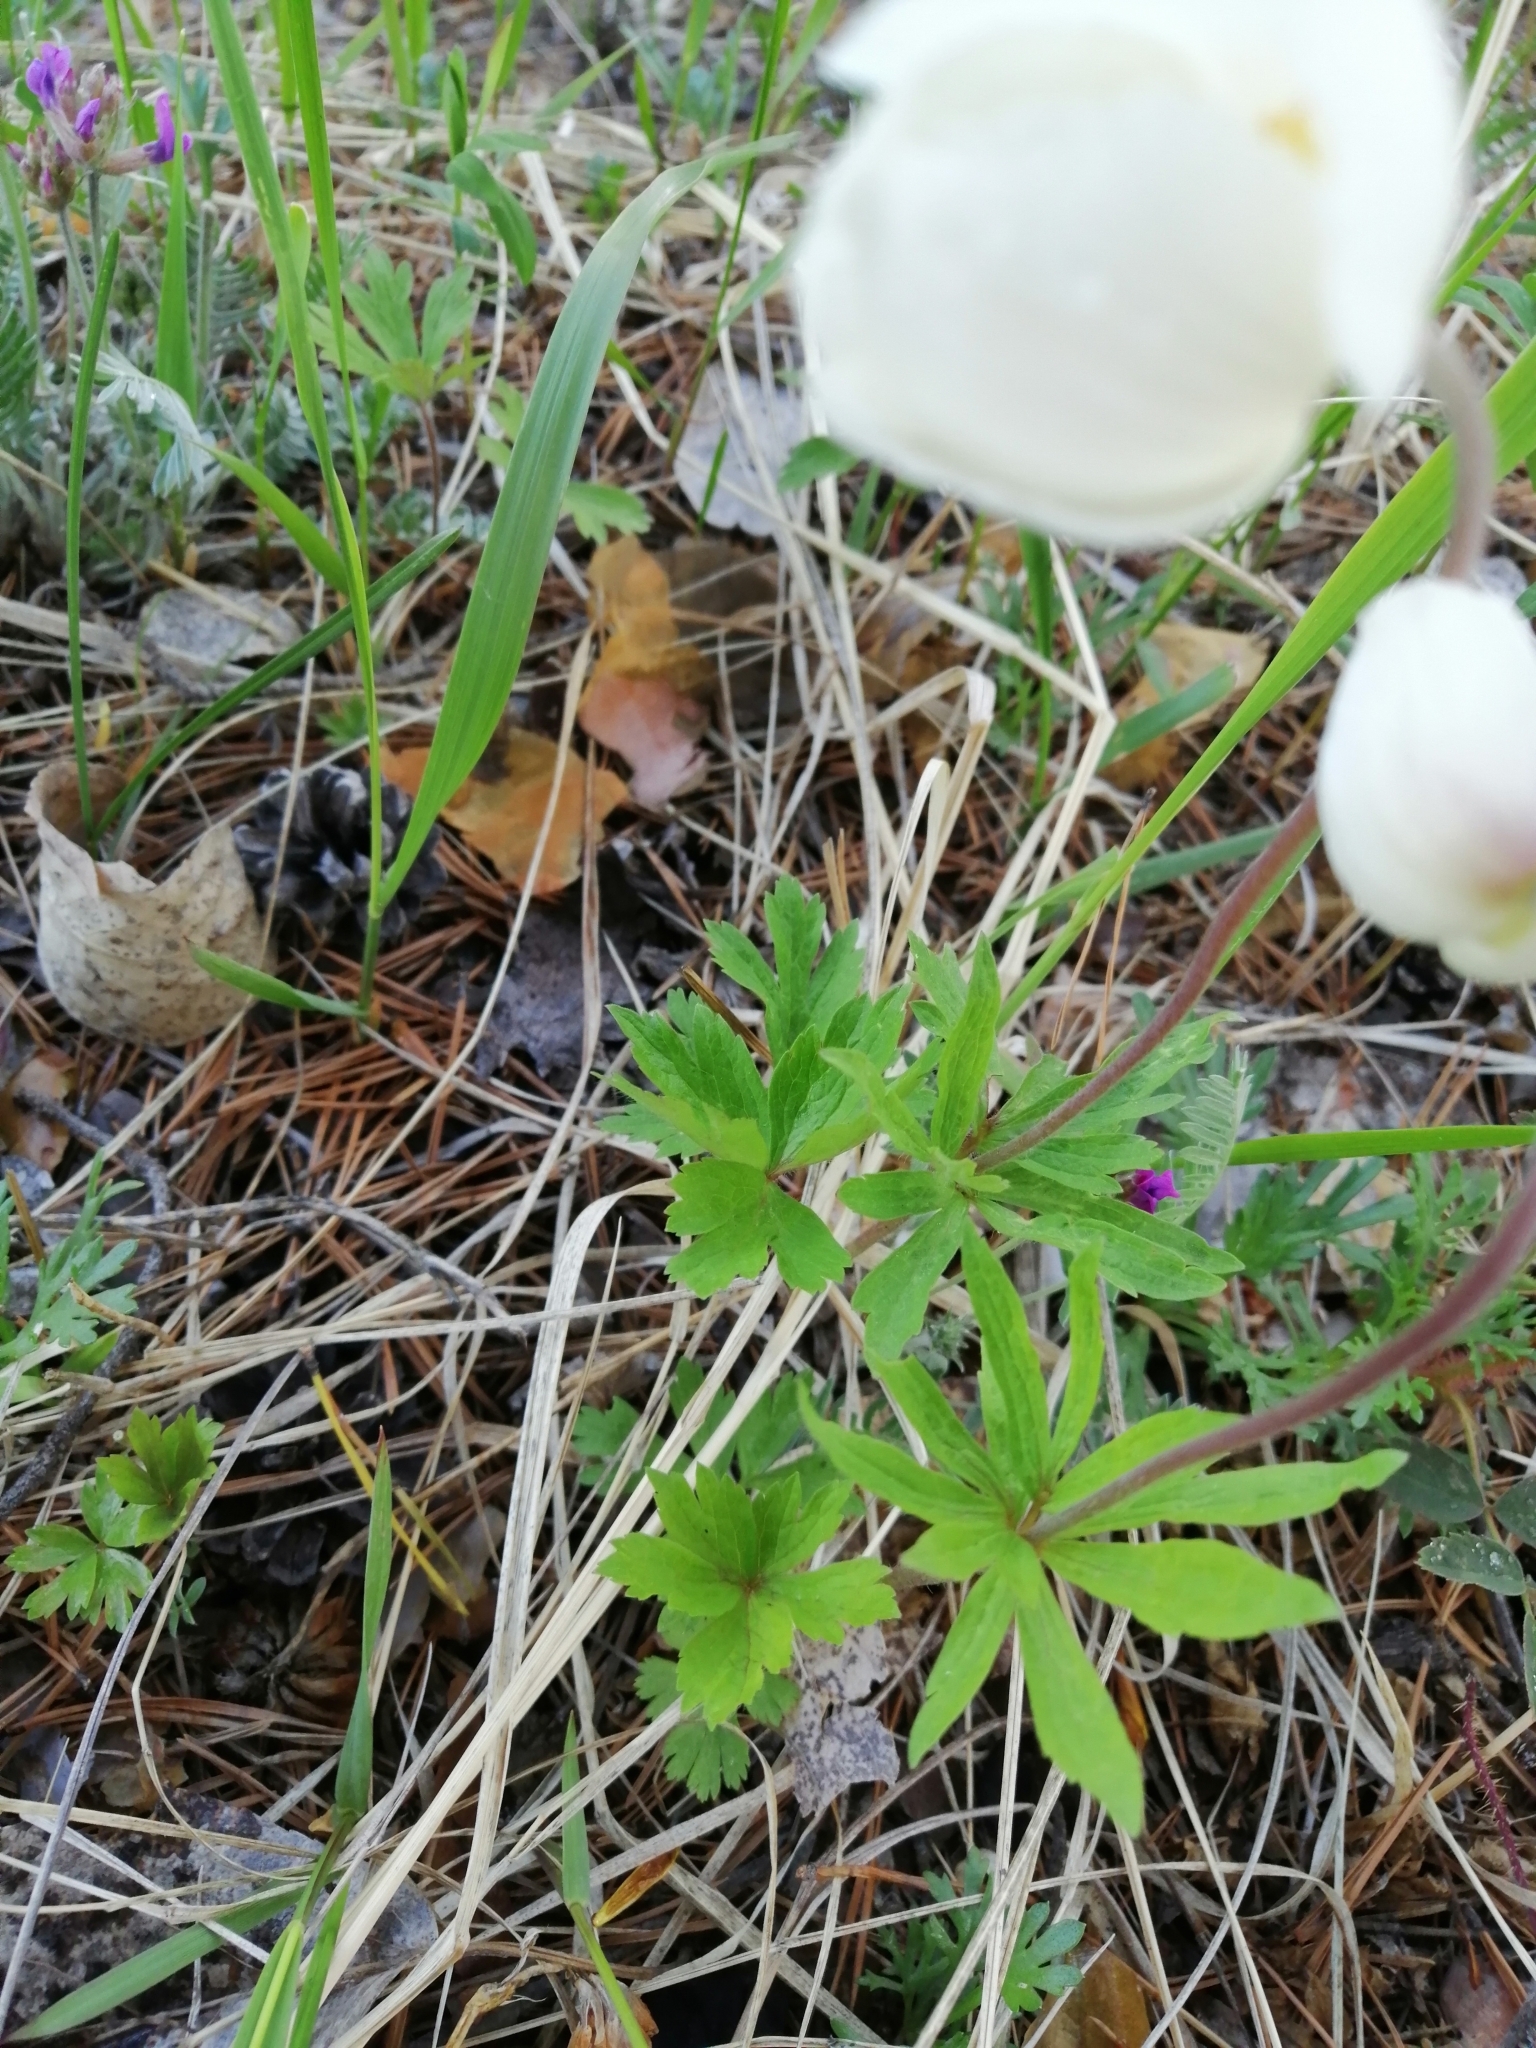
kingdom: Plantae
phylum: Tracheophyta
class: Magnoliopsida
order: Ranunculales
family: Ranunculaceae
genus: Anemone
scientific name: Anemone sylvestris
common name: Snowdrop anemone
